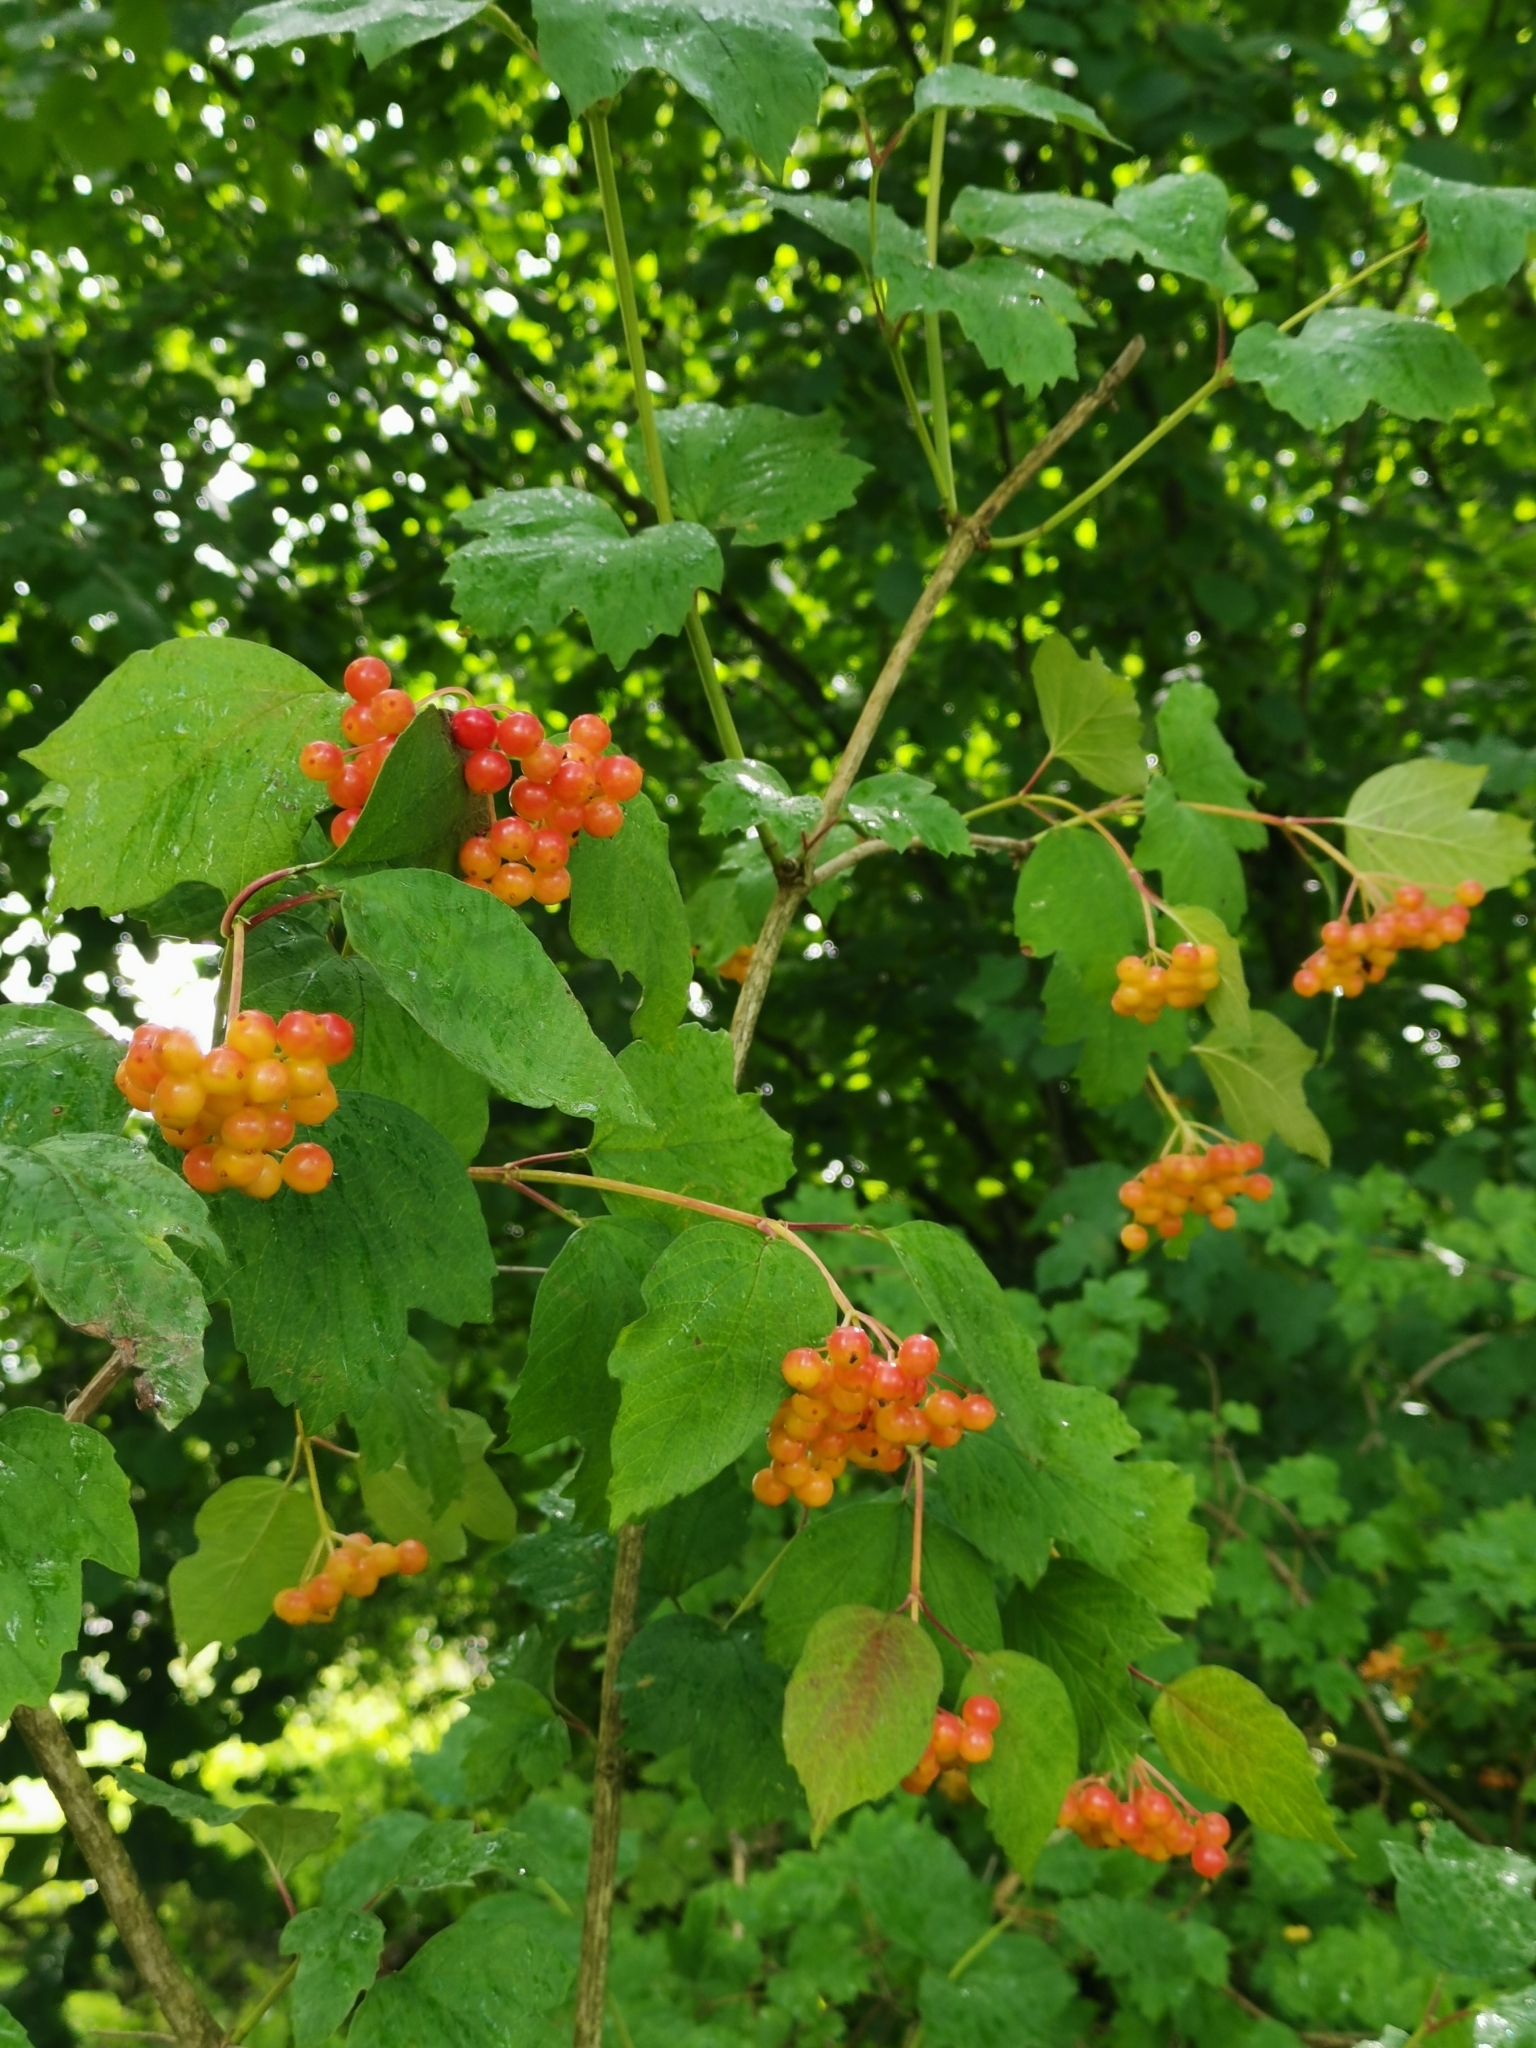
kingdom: Plantae
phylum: Tracheophyta
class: Magnoliopsida
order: Dipsacales
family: Viburnaceae
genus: Viburnum
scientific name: Viburnum opulus
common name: Guelder-rose
